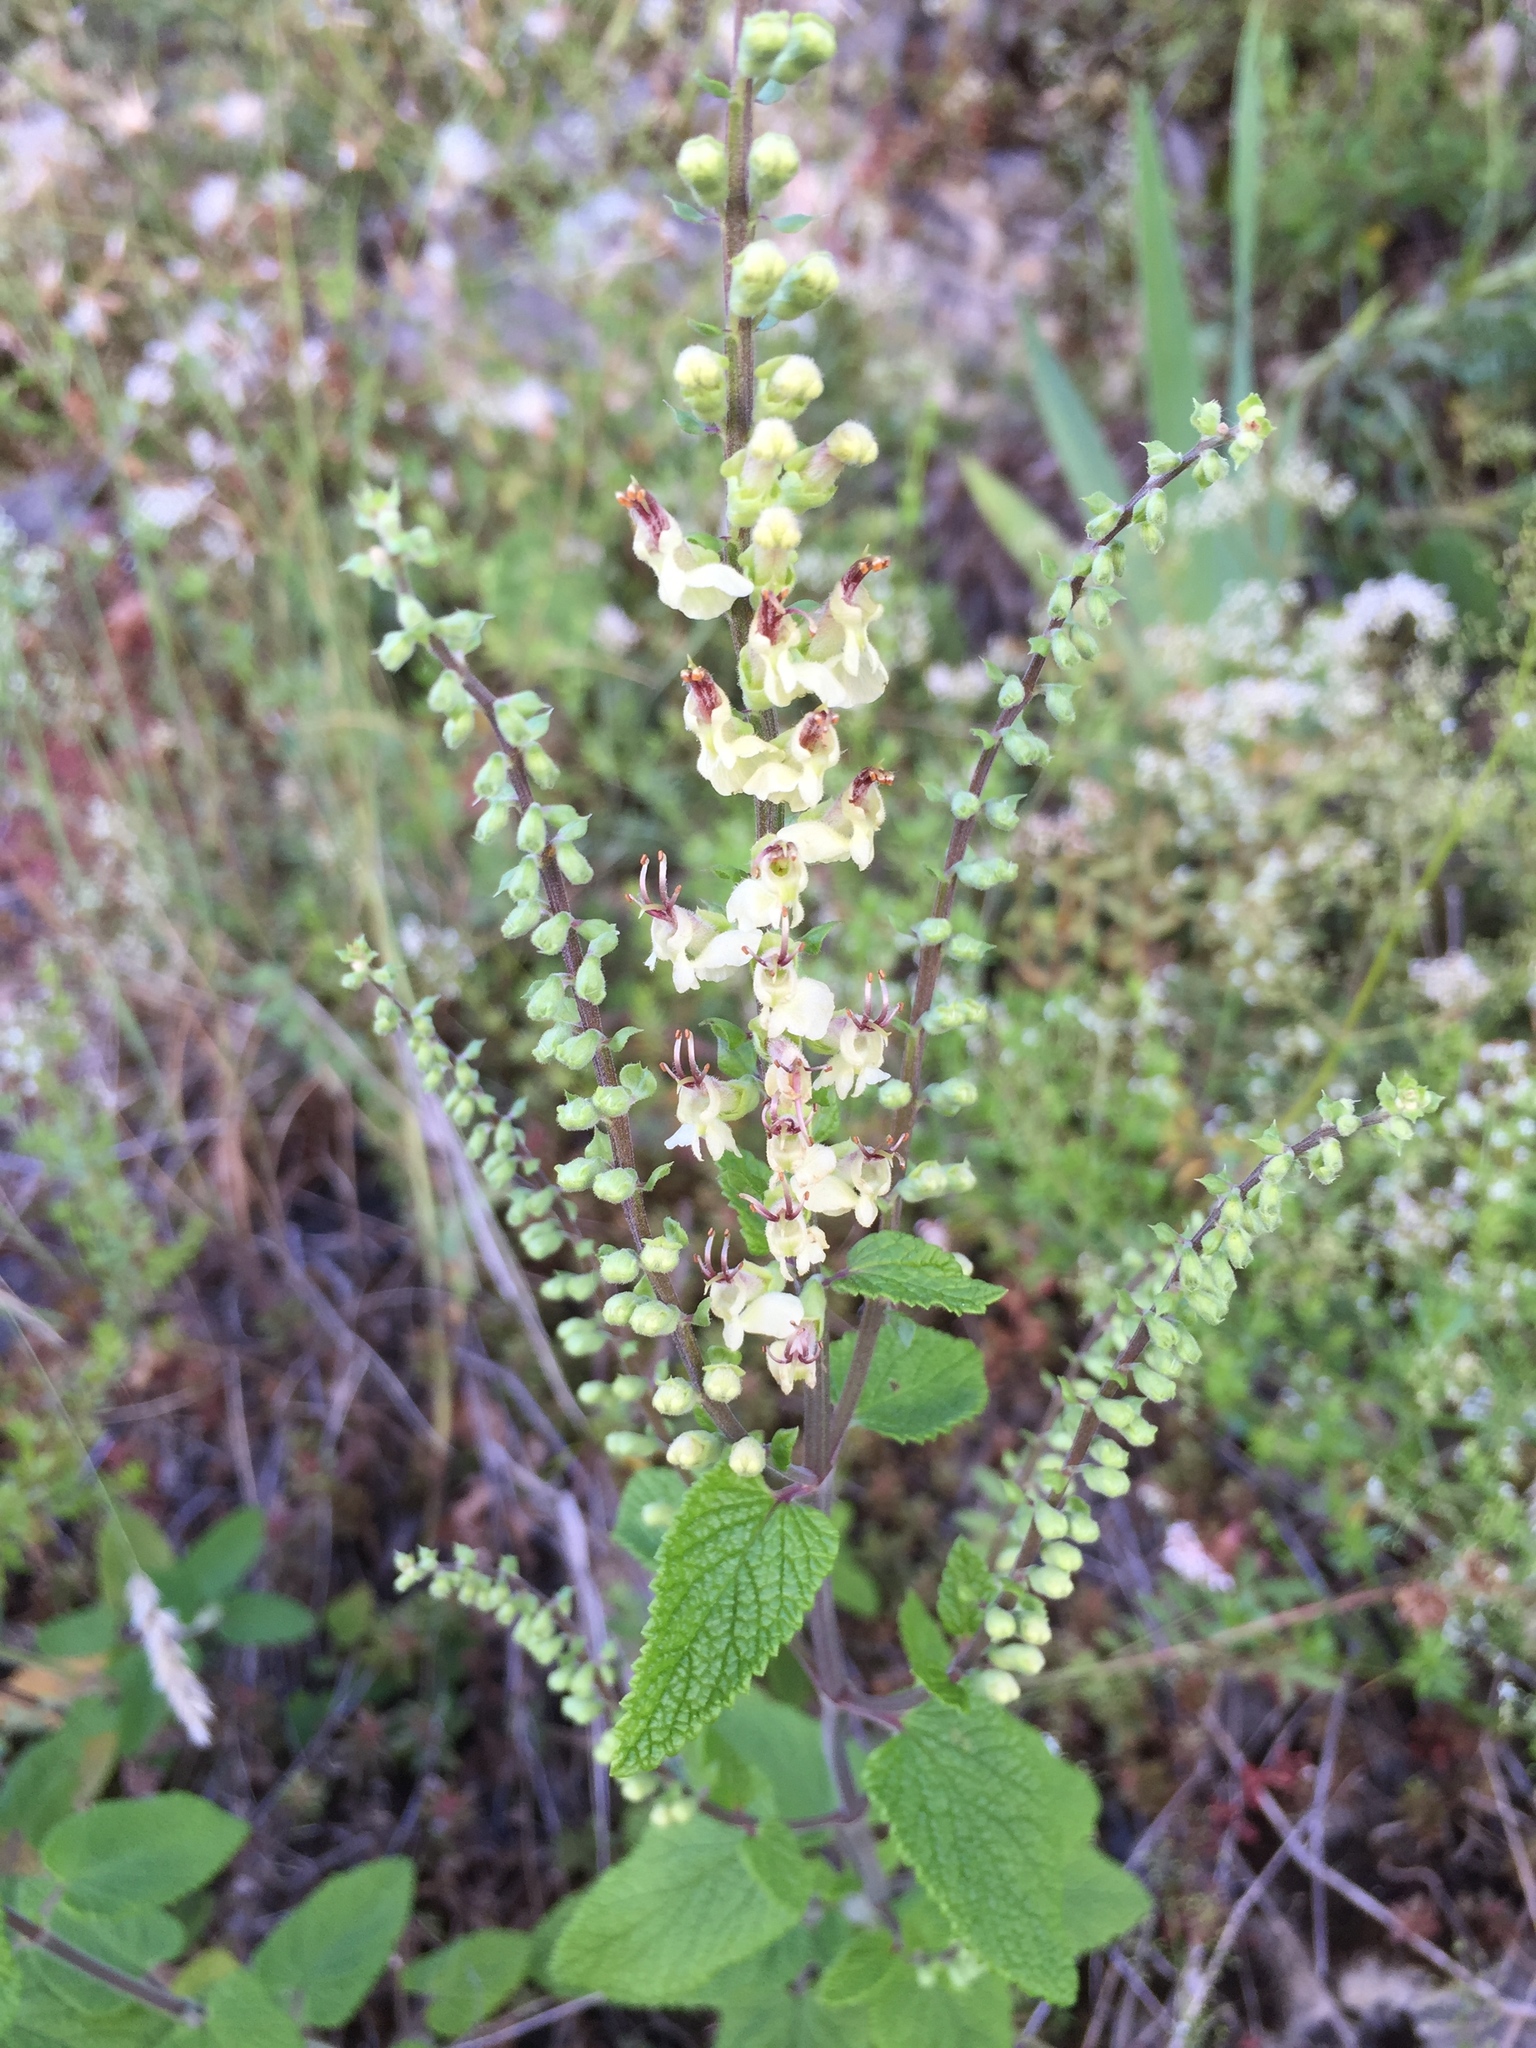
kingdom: Plantae
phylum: Tracheophyta
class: Magnoliopsida
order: Lamiales
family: Lamiaceae
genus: Teucrium
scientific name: Teucrium scorodonia
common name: Woodland germander
